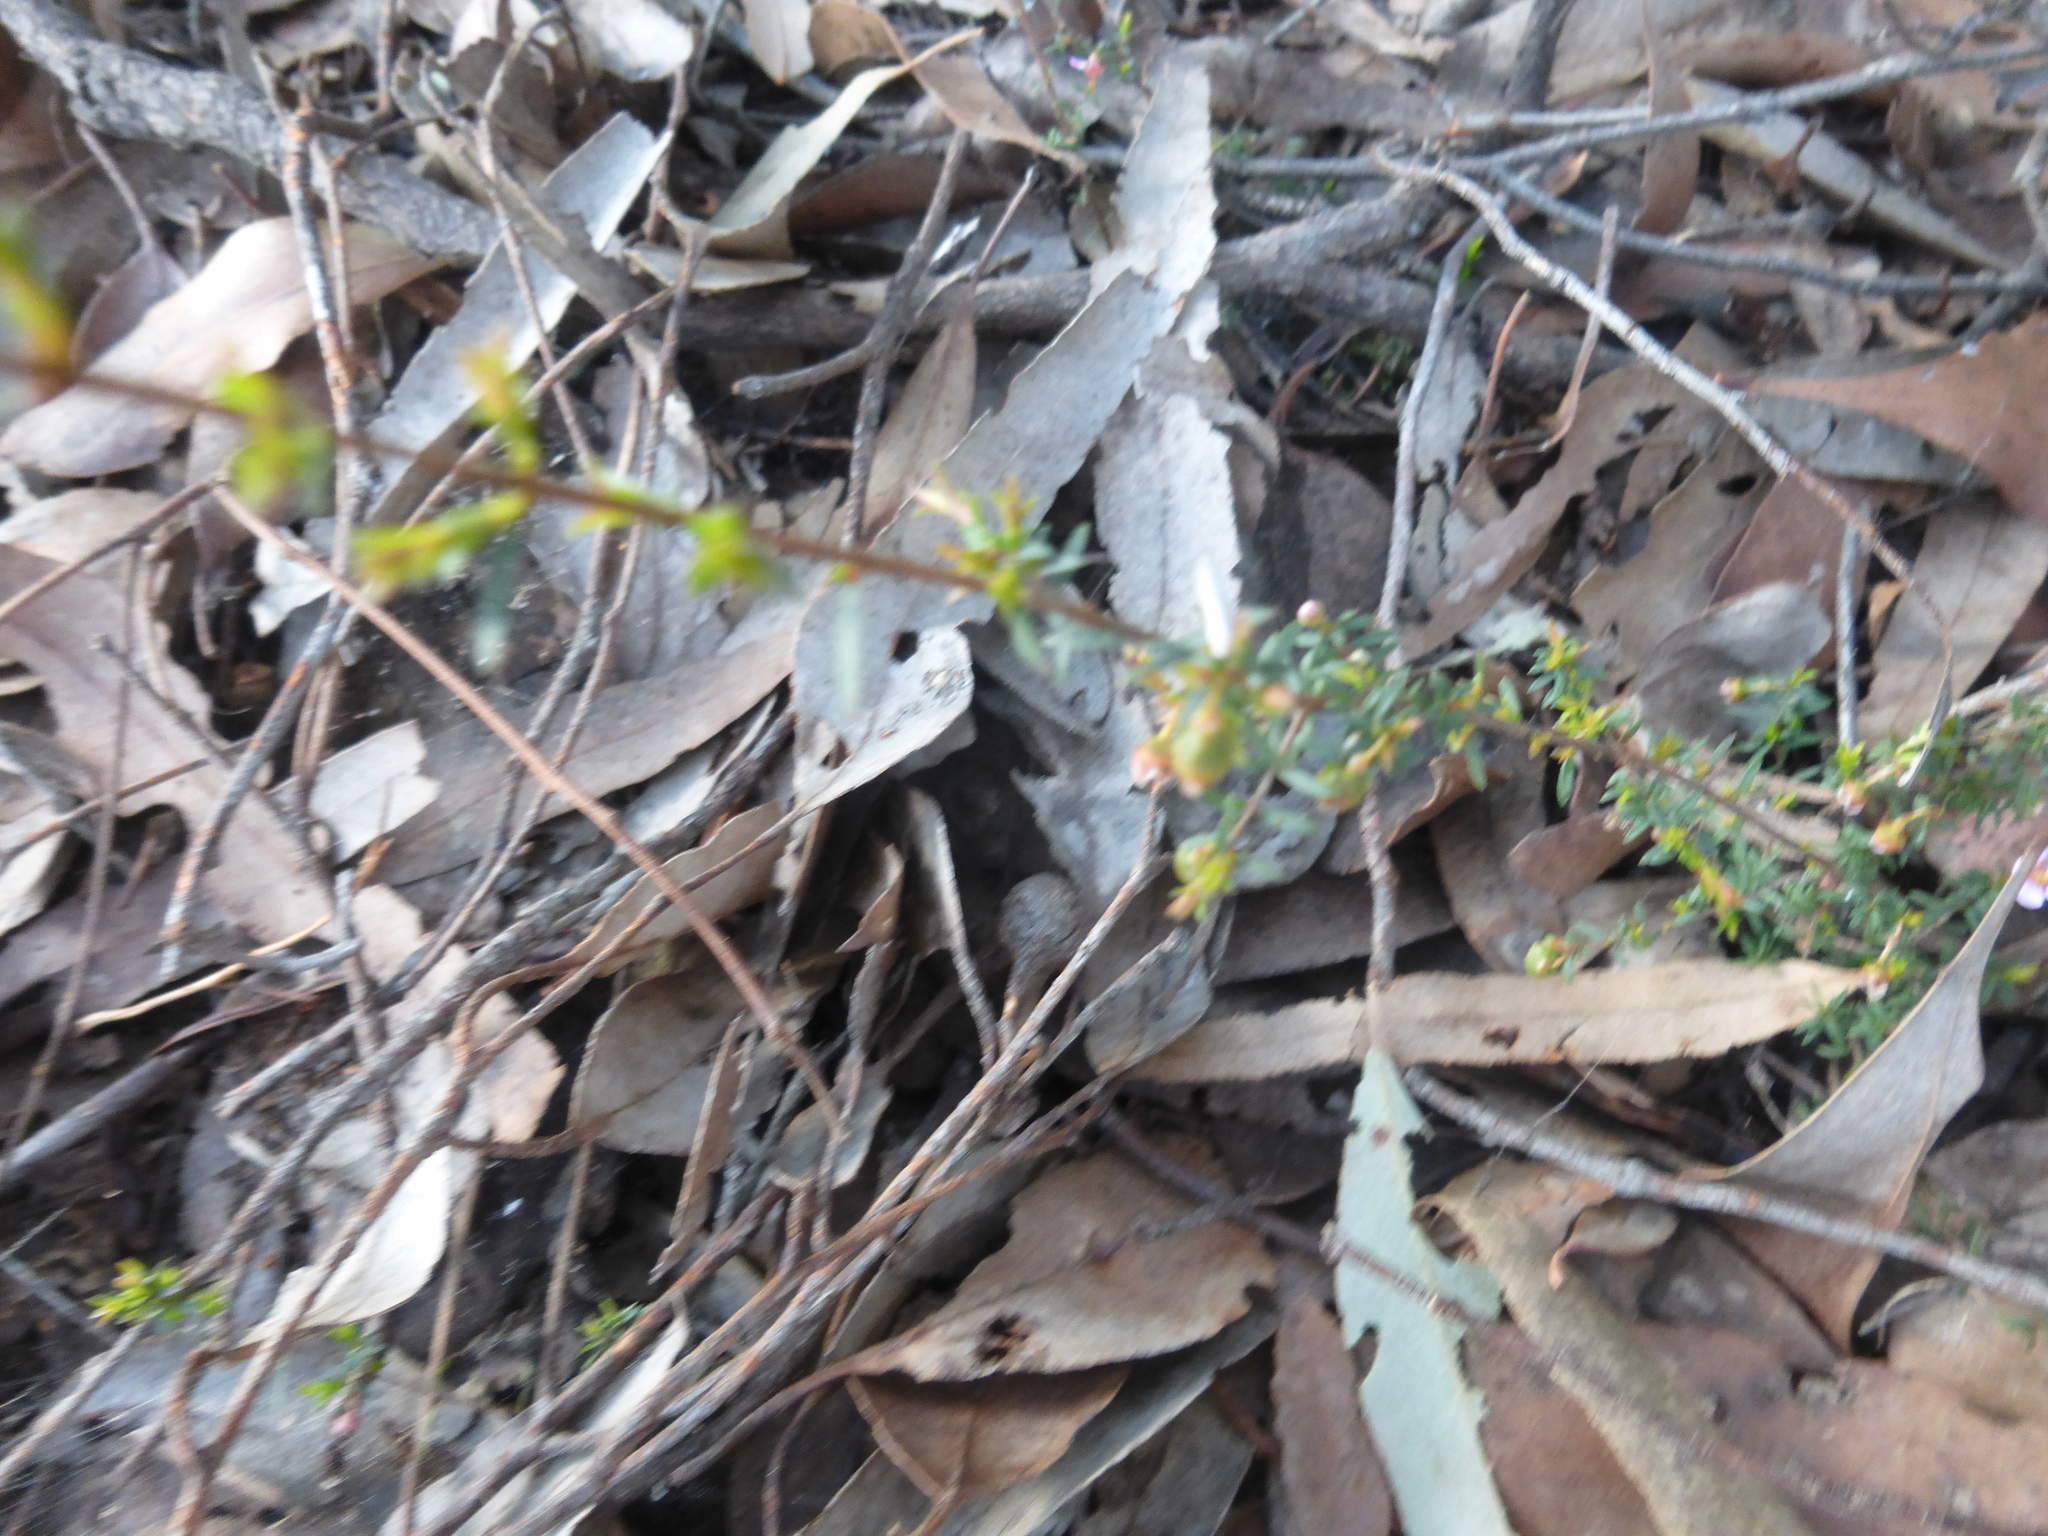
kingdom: Plantae
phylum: Tracheophyta
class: Magnoliopsida
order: Myrtales
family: Myrtaceae
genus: Euryomyrtus
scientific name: Euryomyrtus ramosissima
